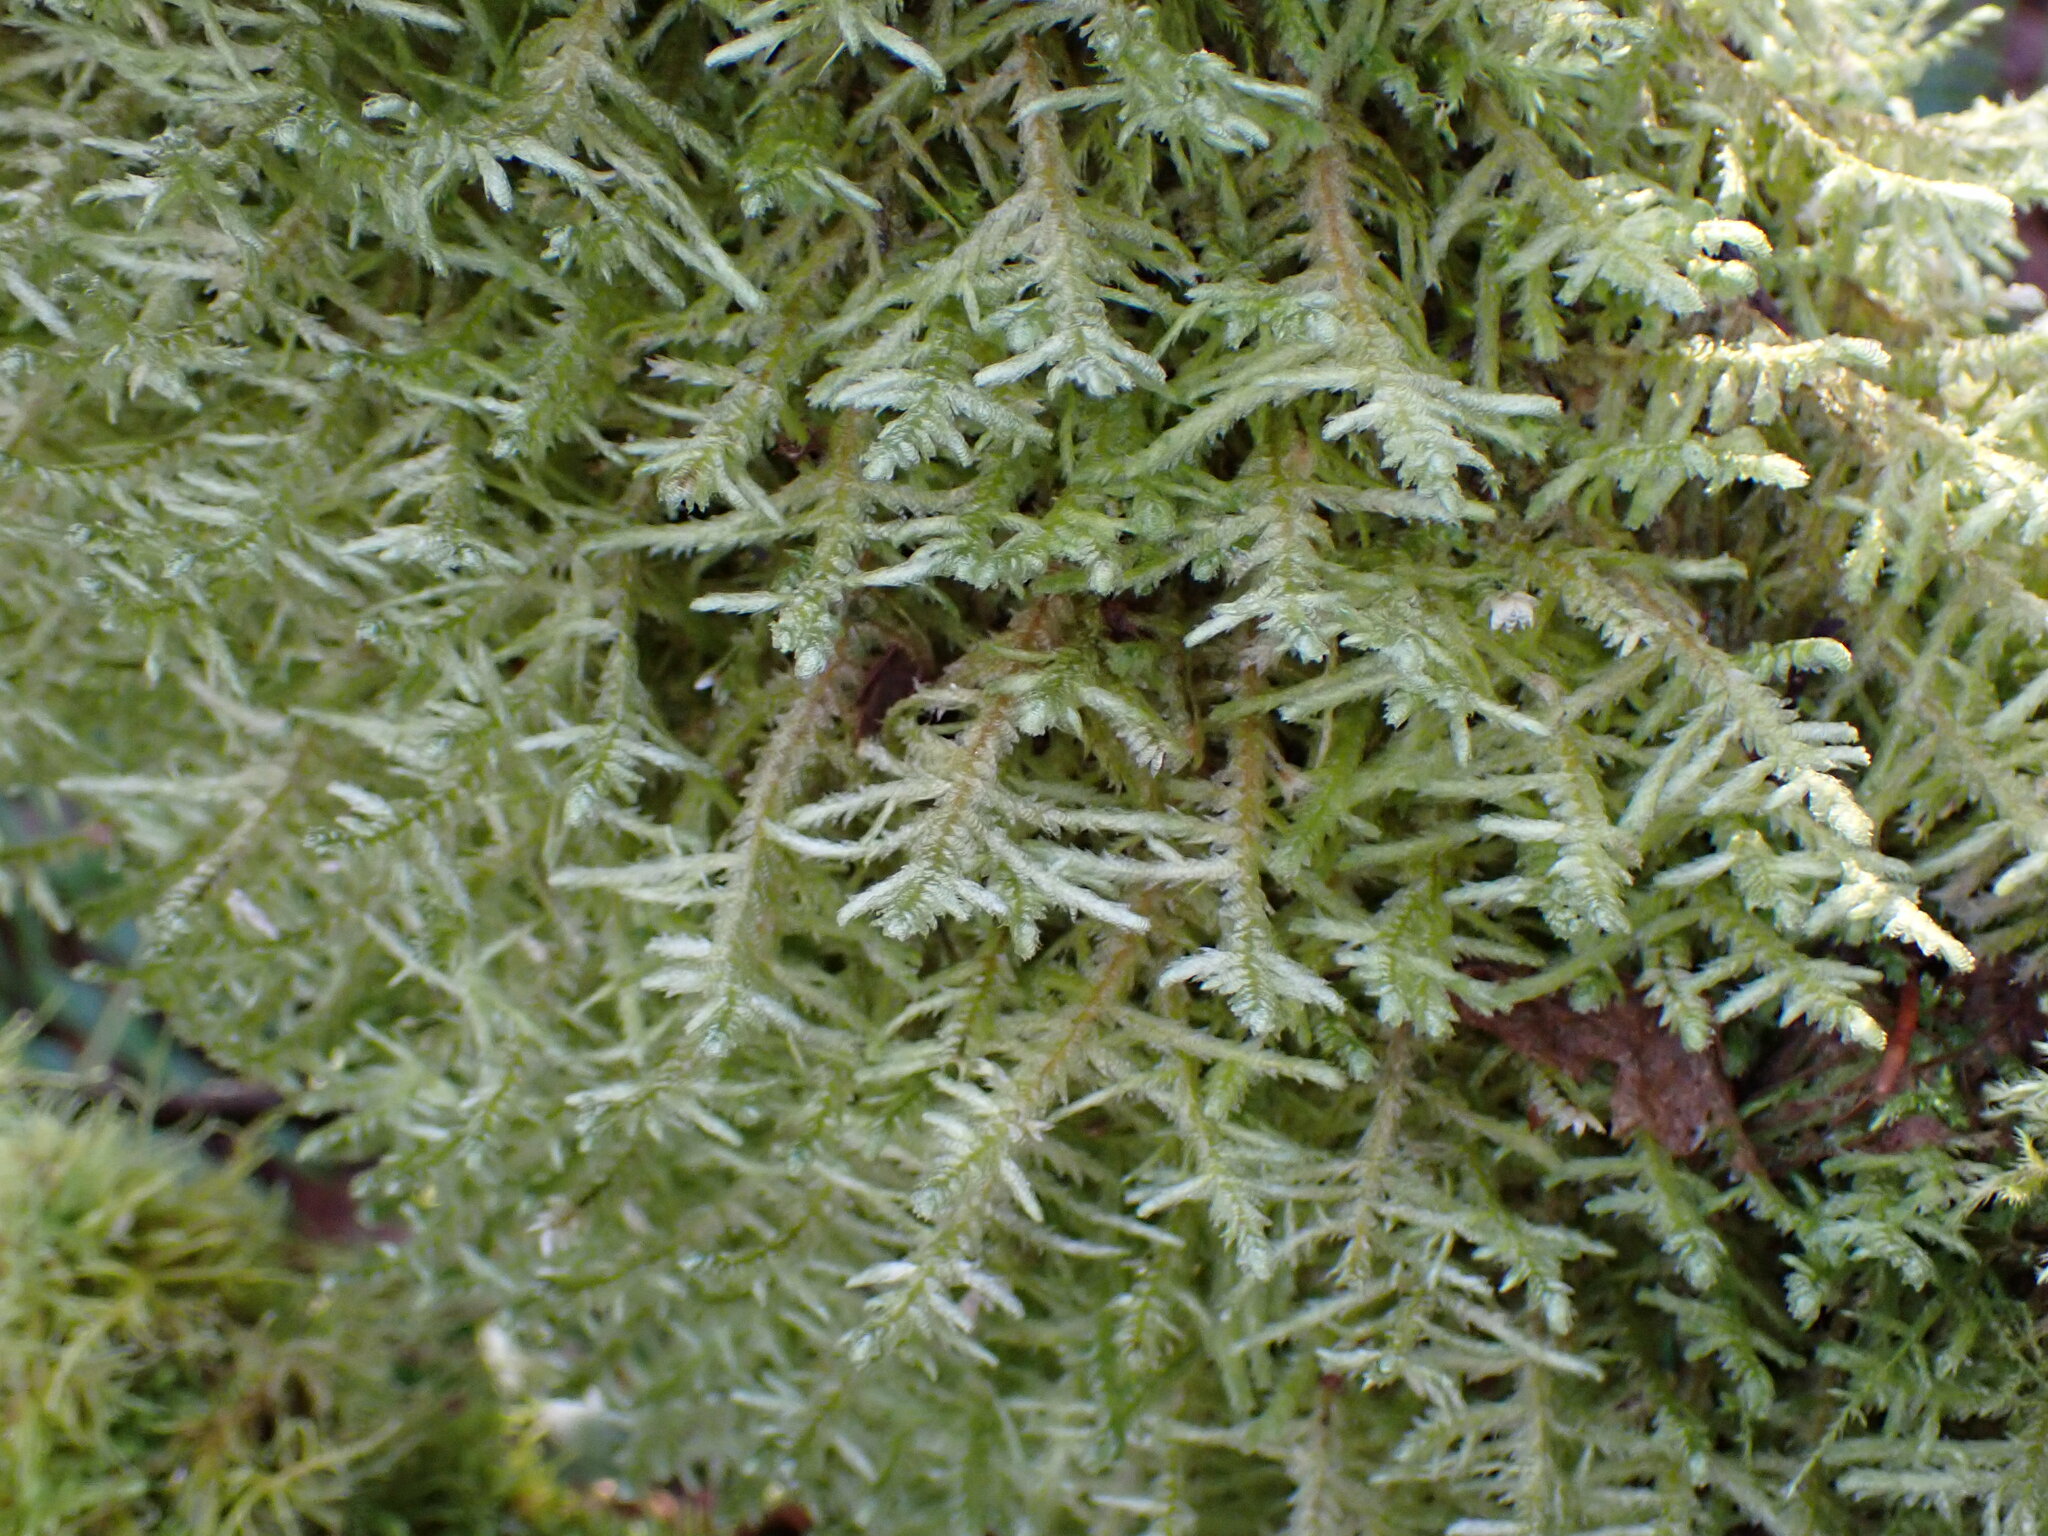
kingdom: Plantae
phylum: Bryophyta
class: Bryopsida
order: Hypnales
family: Neckeraceae
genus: Neckera
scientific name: Neckera douglasii
